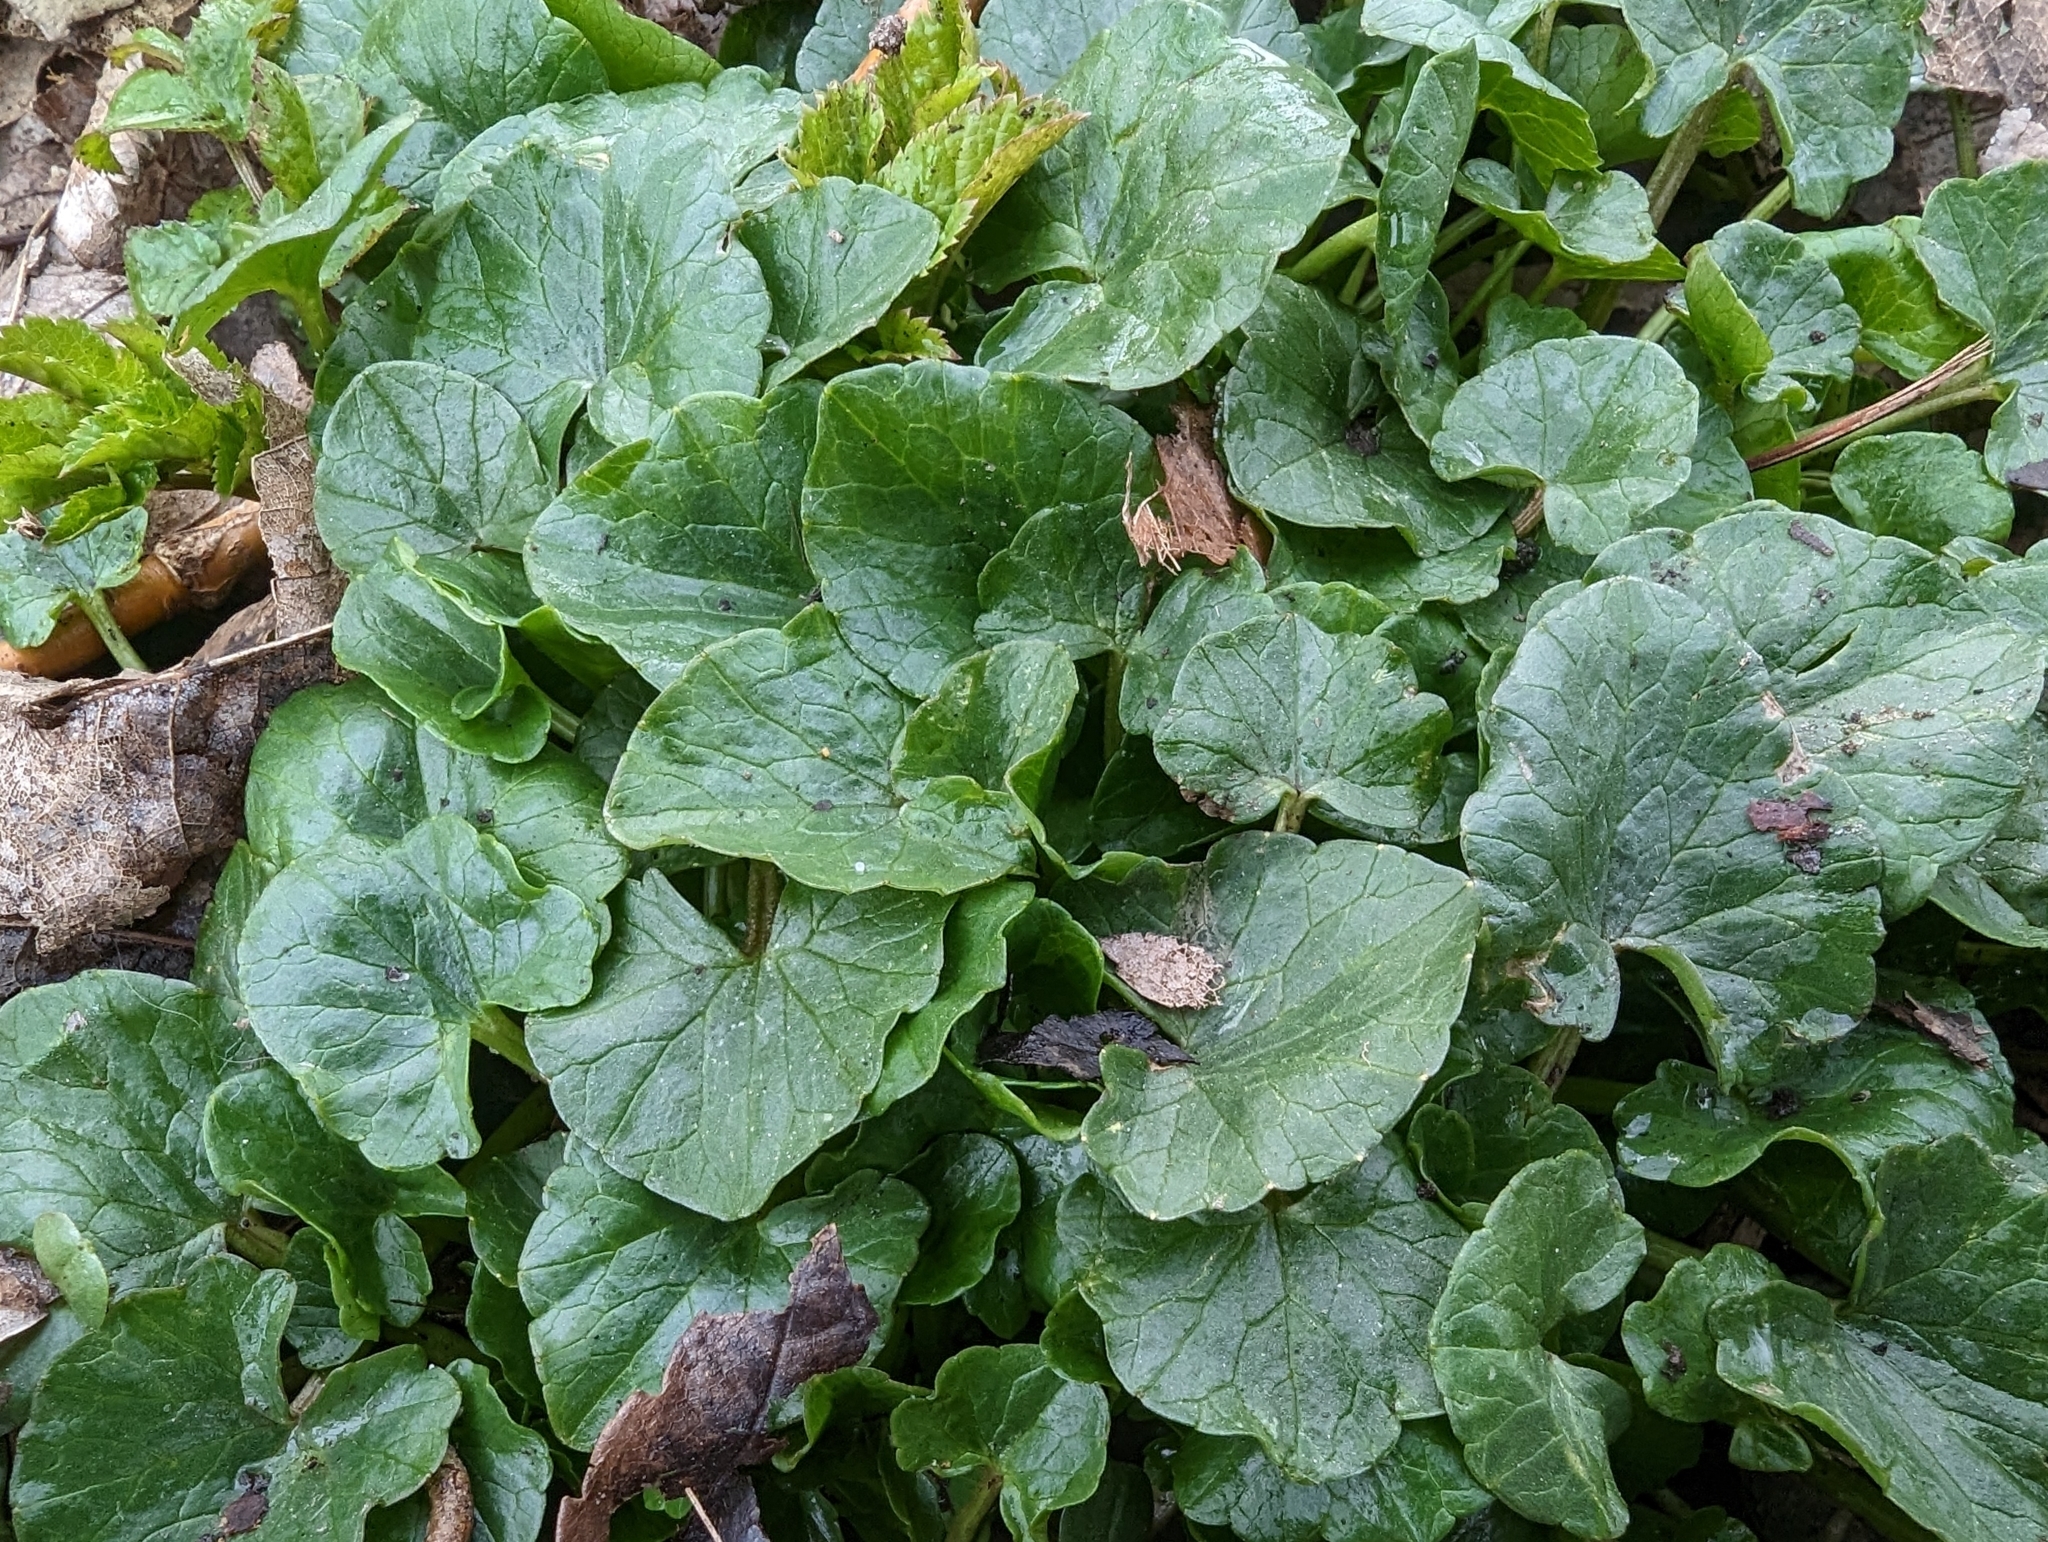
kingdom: Plantae
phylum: Tracheophyta
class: Magnoliopsida
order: Ranunculales
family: Ranunculaceae
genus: Ficaria
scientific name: Ficaria verna
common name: Lesser celandine
